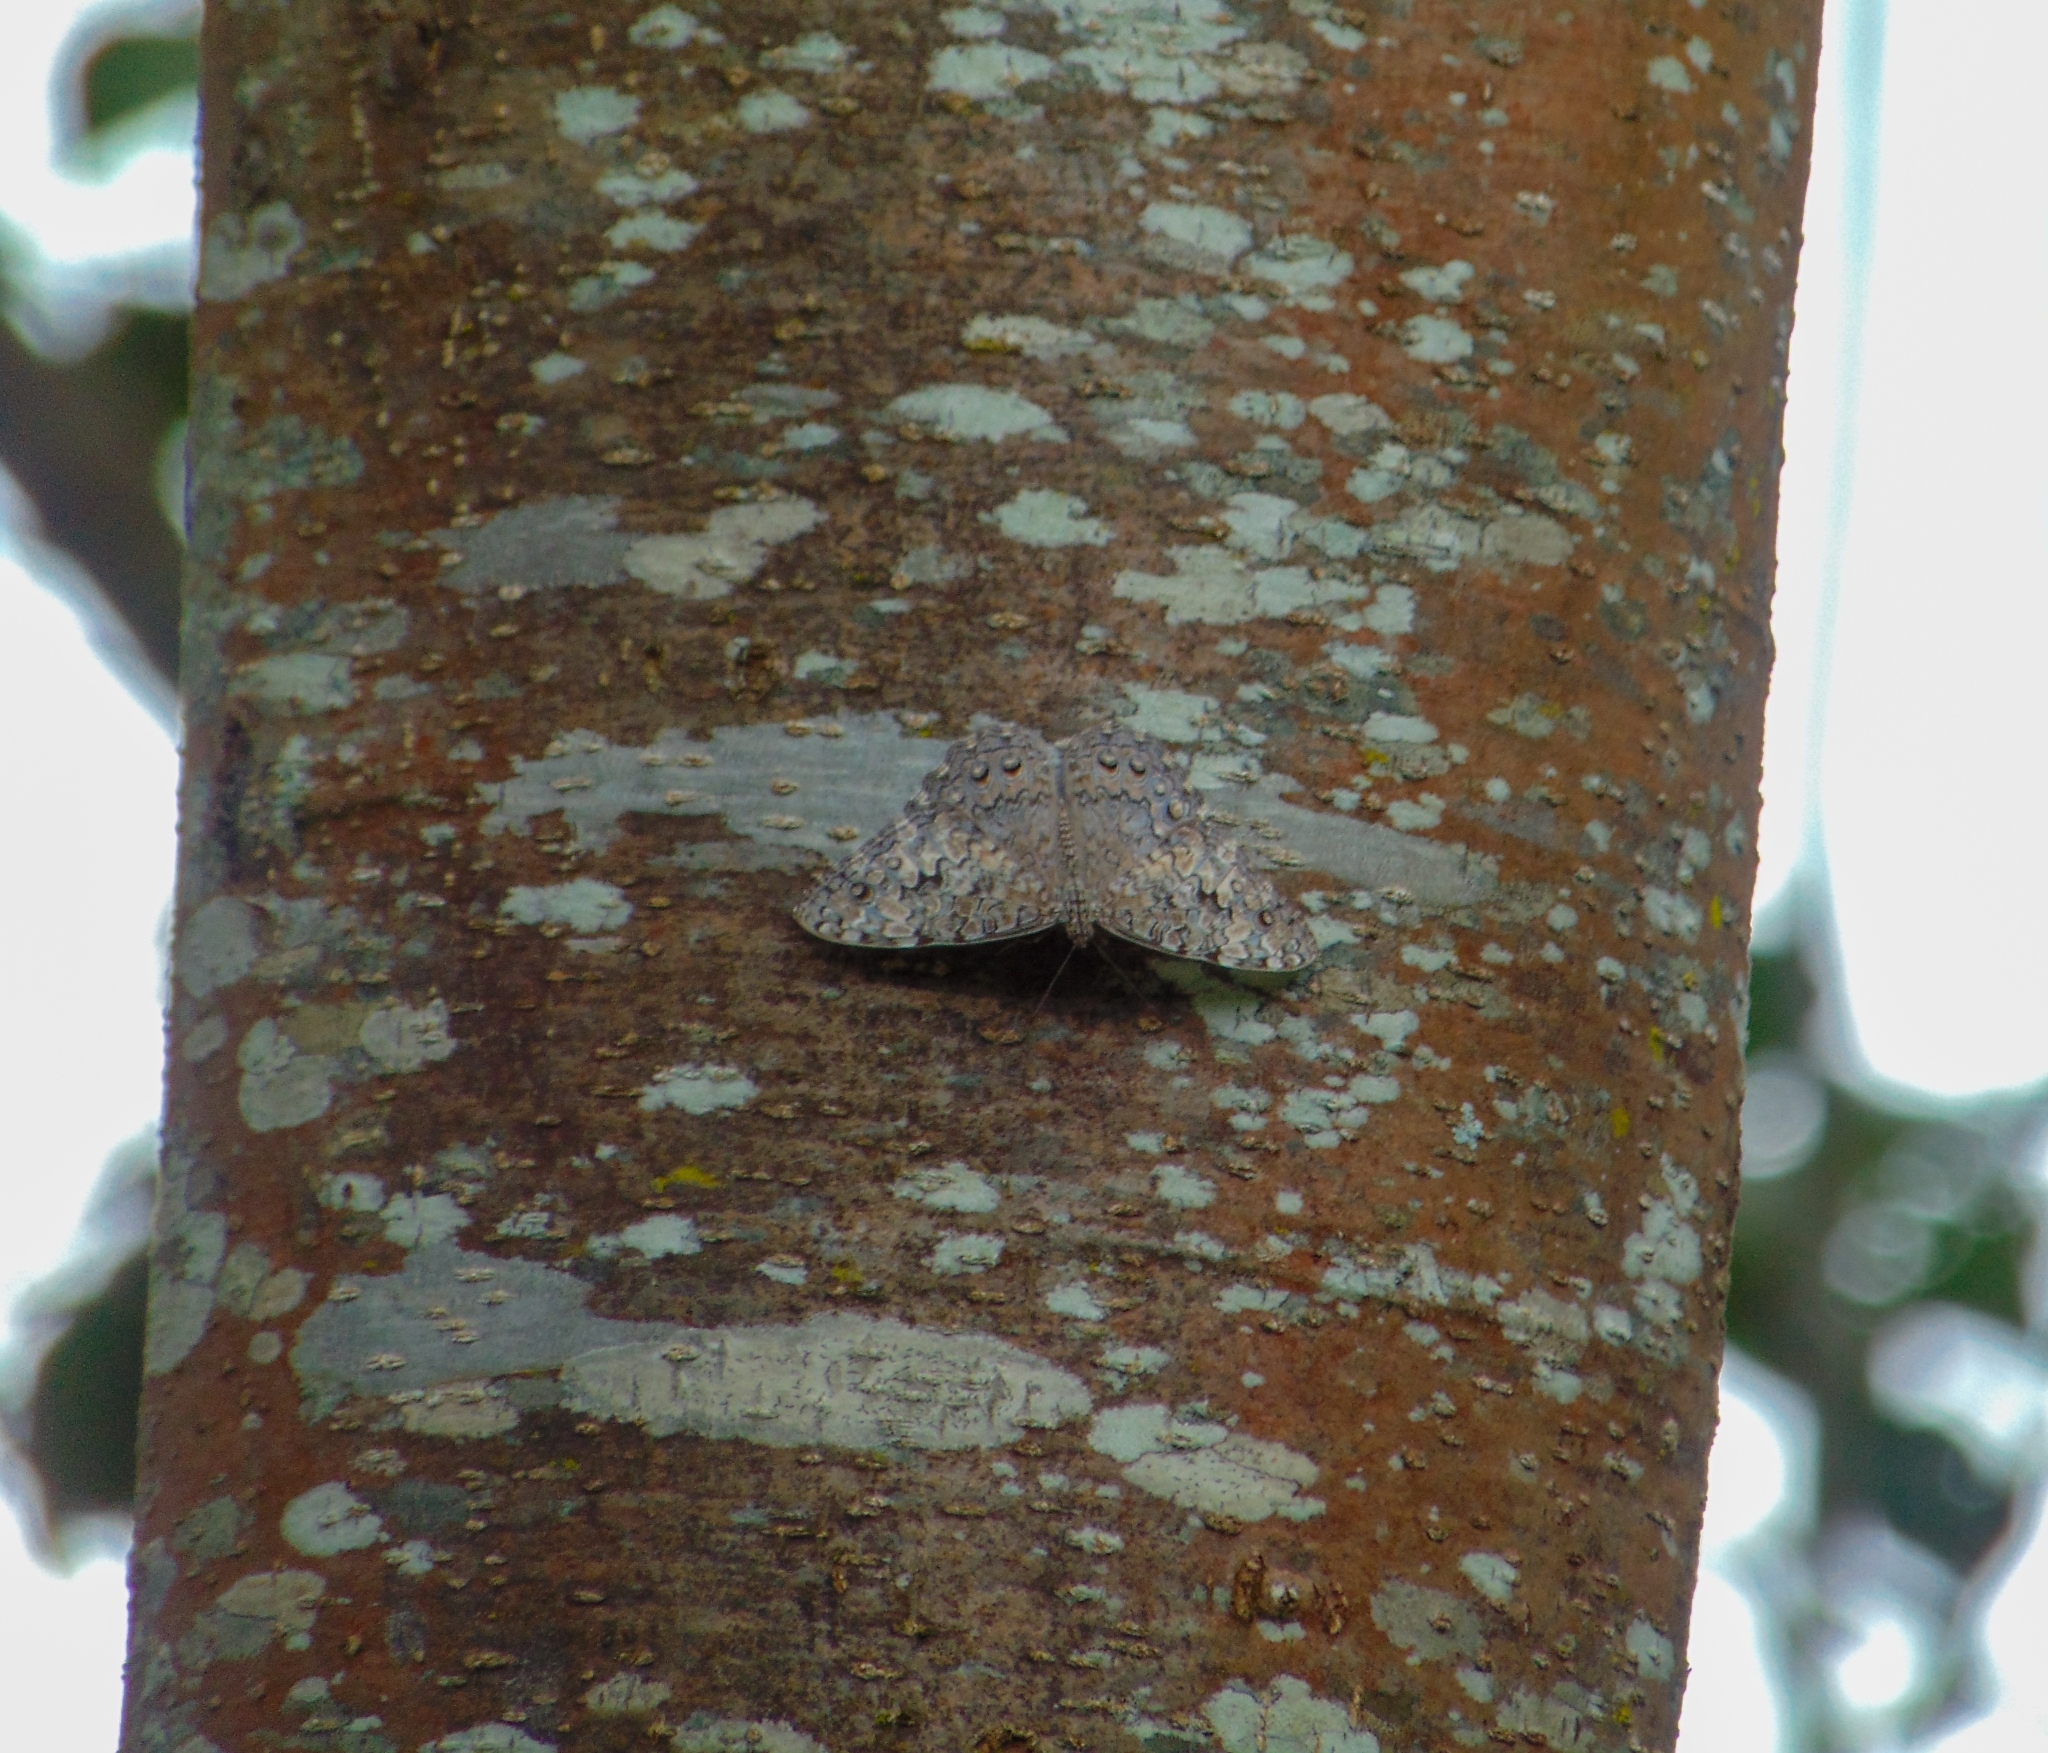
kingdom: Animalia
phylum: Arthropoda
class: Insecta
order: Lepidoptera
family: Nymphalidae
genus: Hamadryas
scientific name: Hamadryas februa
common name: Gray cracker
